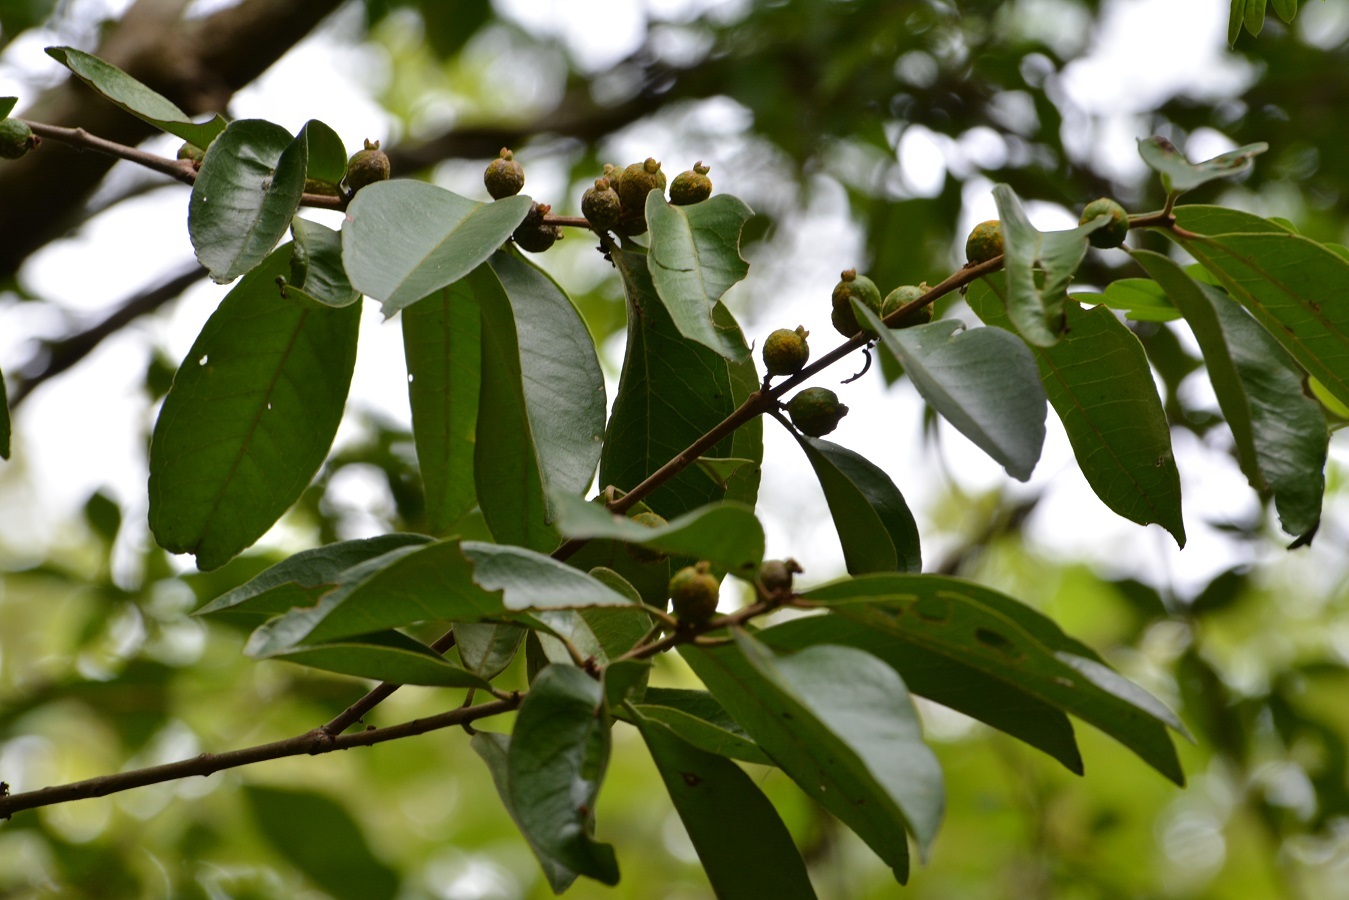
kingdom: Plantae
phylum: Tracheophyta
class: Magnoliopsida
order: Myrtales
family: Myrtaceae
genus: Eugenia
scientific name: Eugenia capulioides
